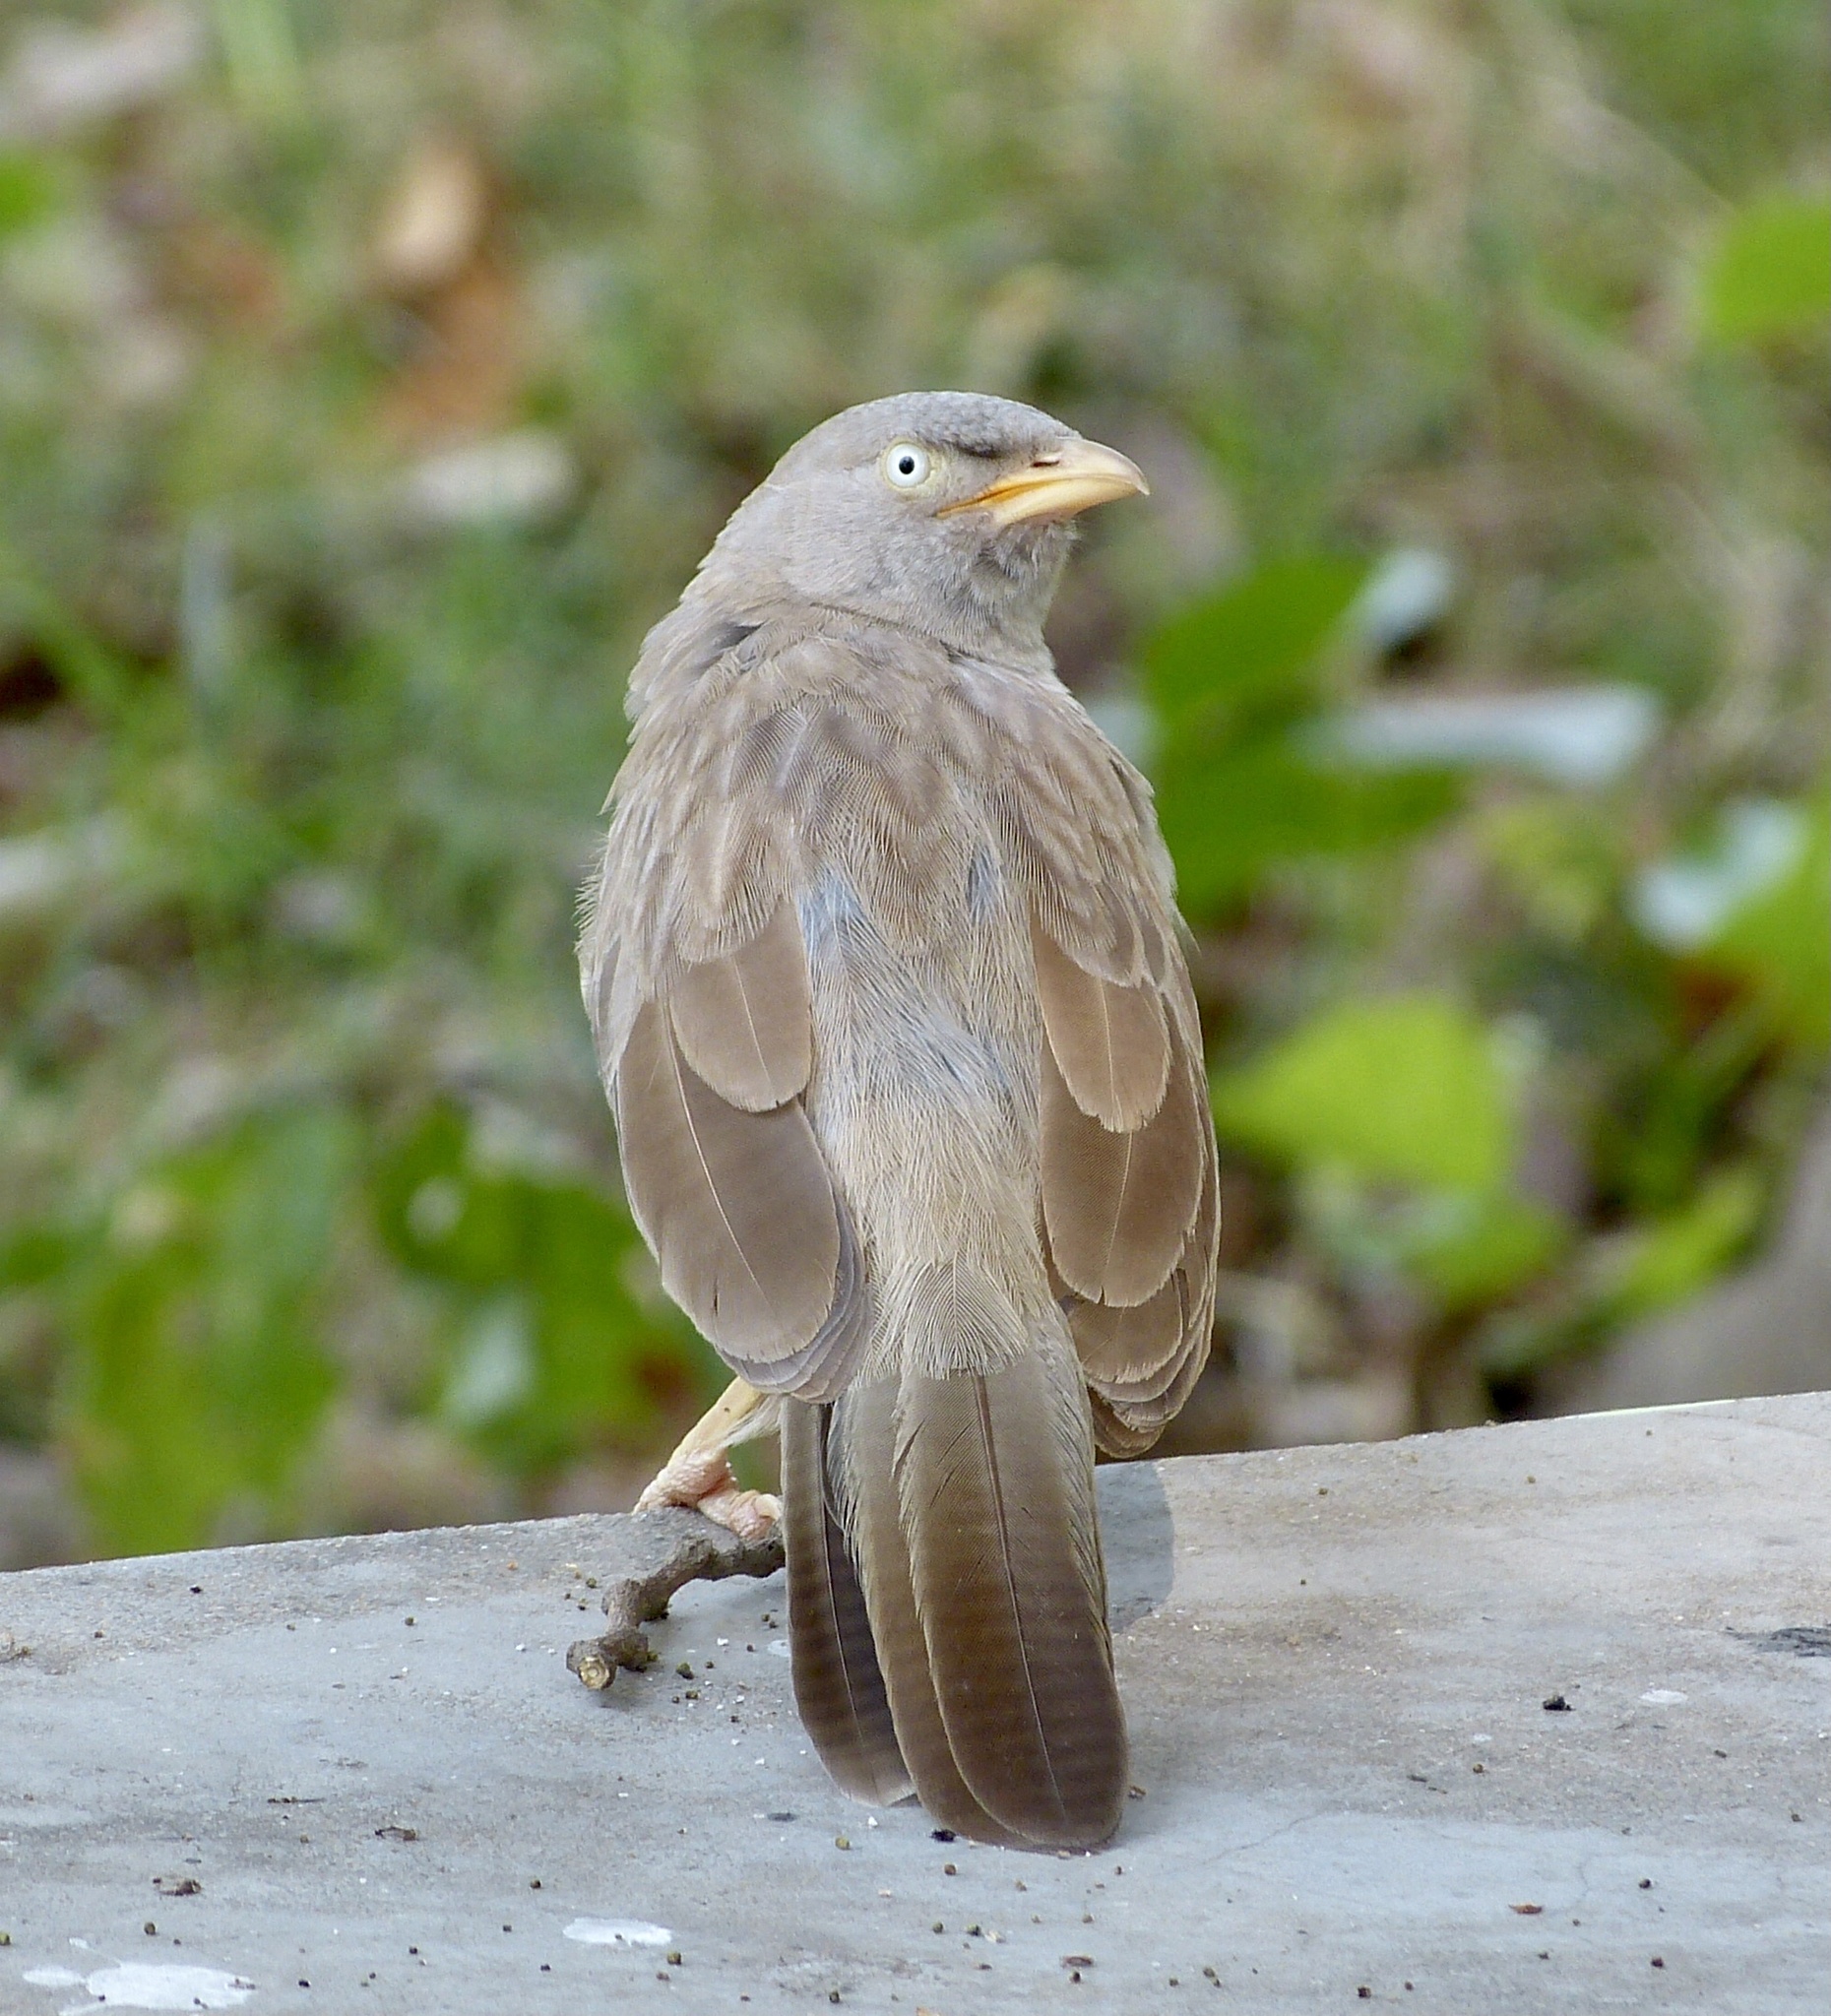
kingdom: Animalia
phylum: Chordata
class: Aves
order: Passeriformes
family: Leiothrichidae
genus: Turdoides
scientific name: Turdoides striata
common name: Jungle babbler
